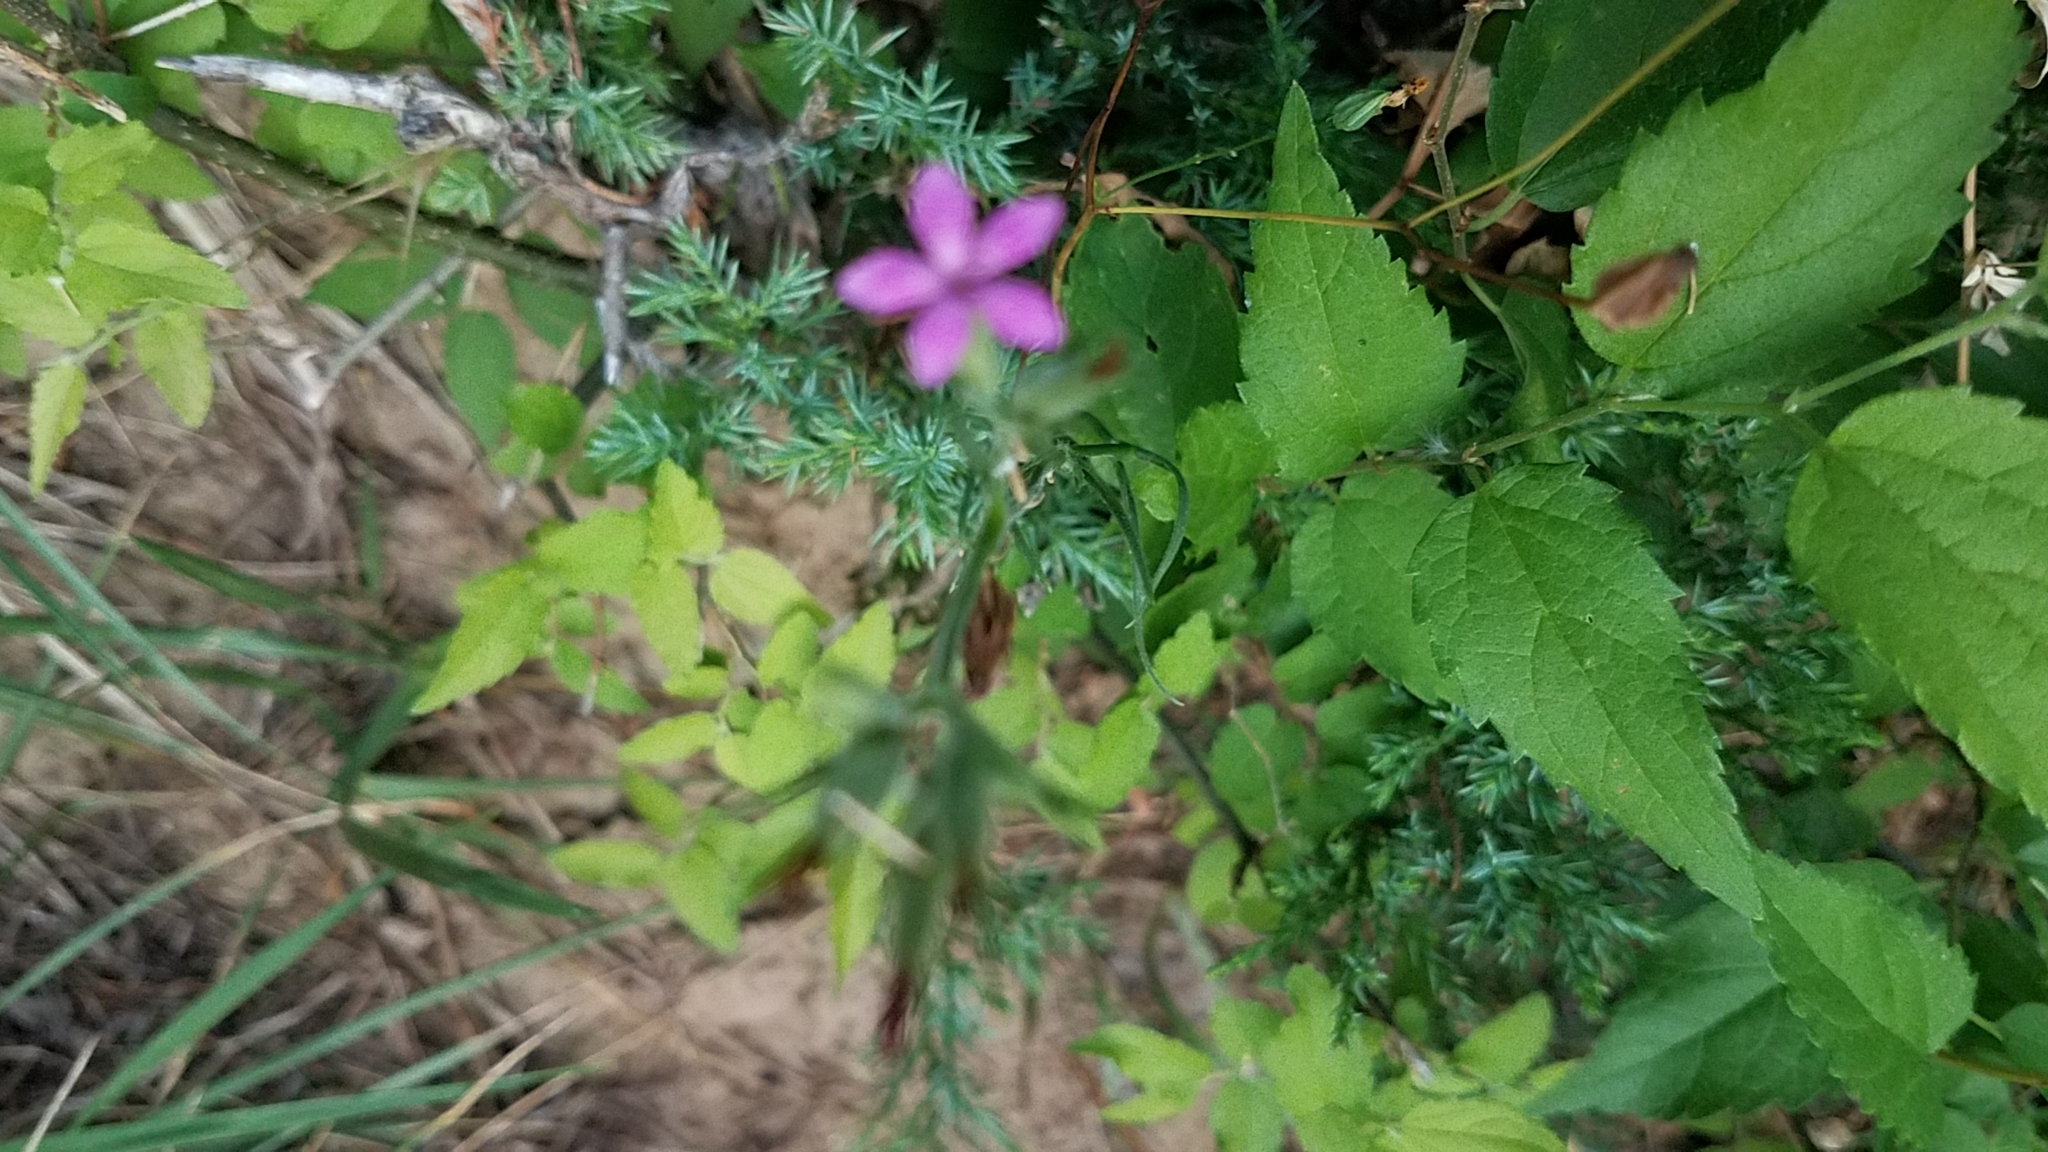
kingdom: Plantae
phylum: Tracheophyta
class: Magnoliopsida
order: Caryophyllales
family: Caryophyllaceae
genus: Dianthus
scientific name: Dianthus armeria
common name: Deptford pink
